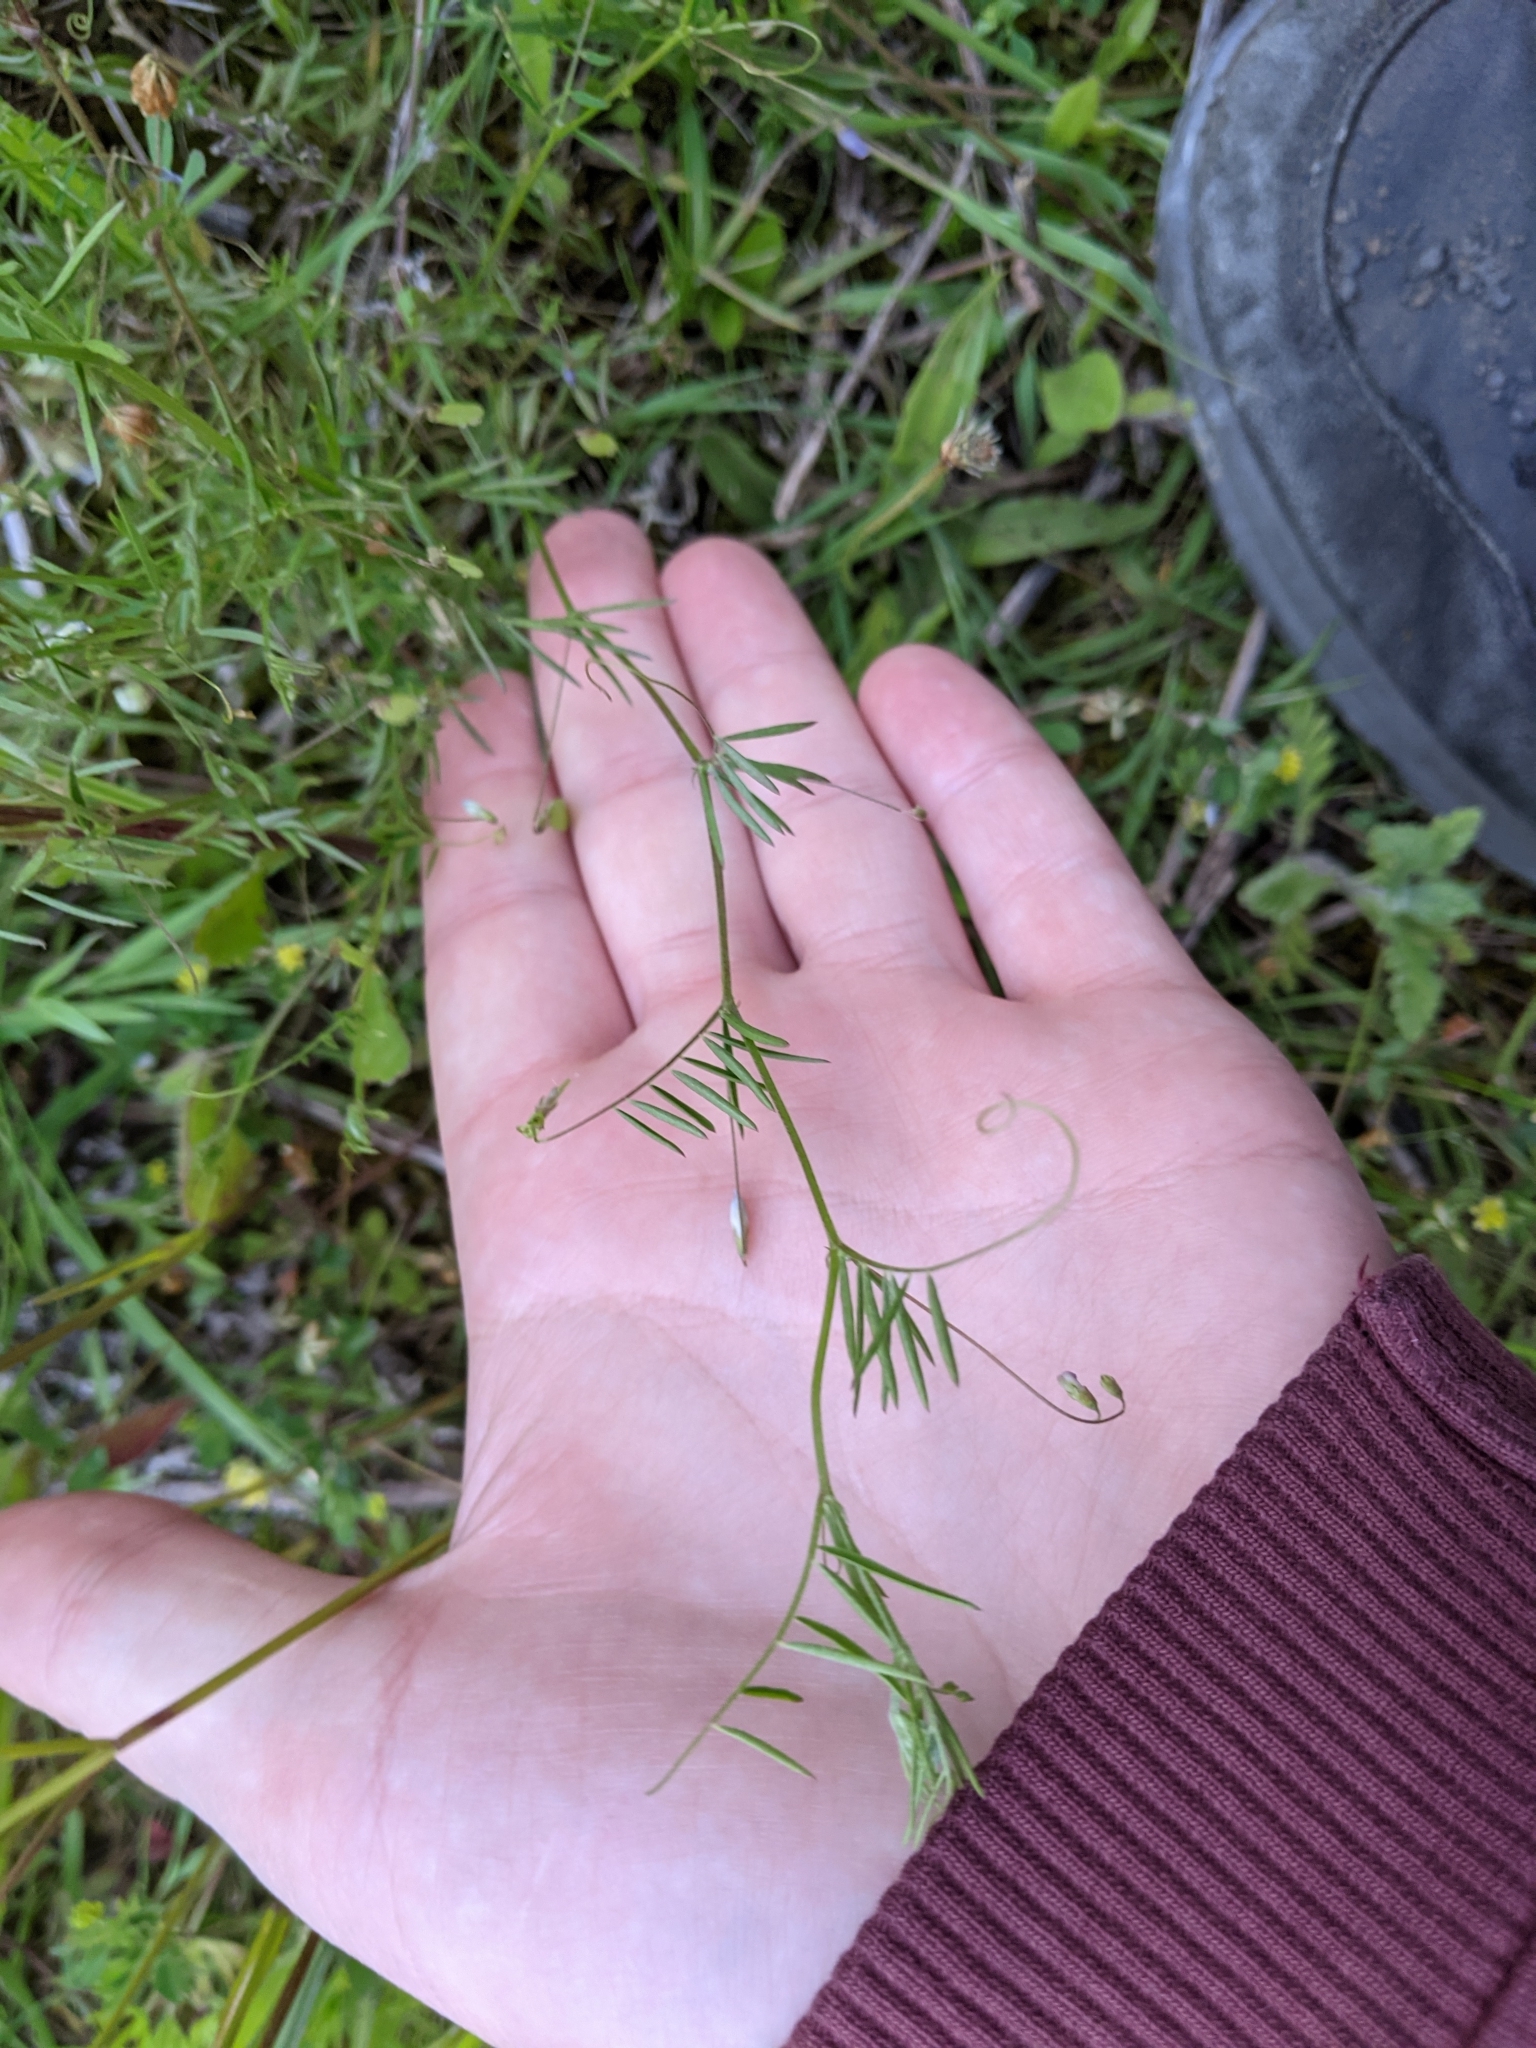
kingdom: Plantae
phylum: Tracheophyta
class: Magnoliopsida
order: Fabales
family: Fabaceae
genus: Vicia
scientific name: Vicia tetrasperma
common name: Smooth tare
